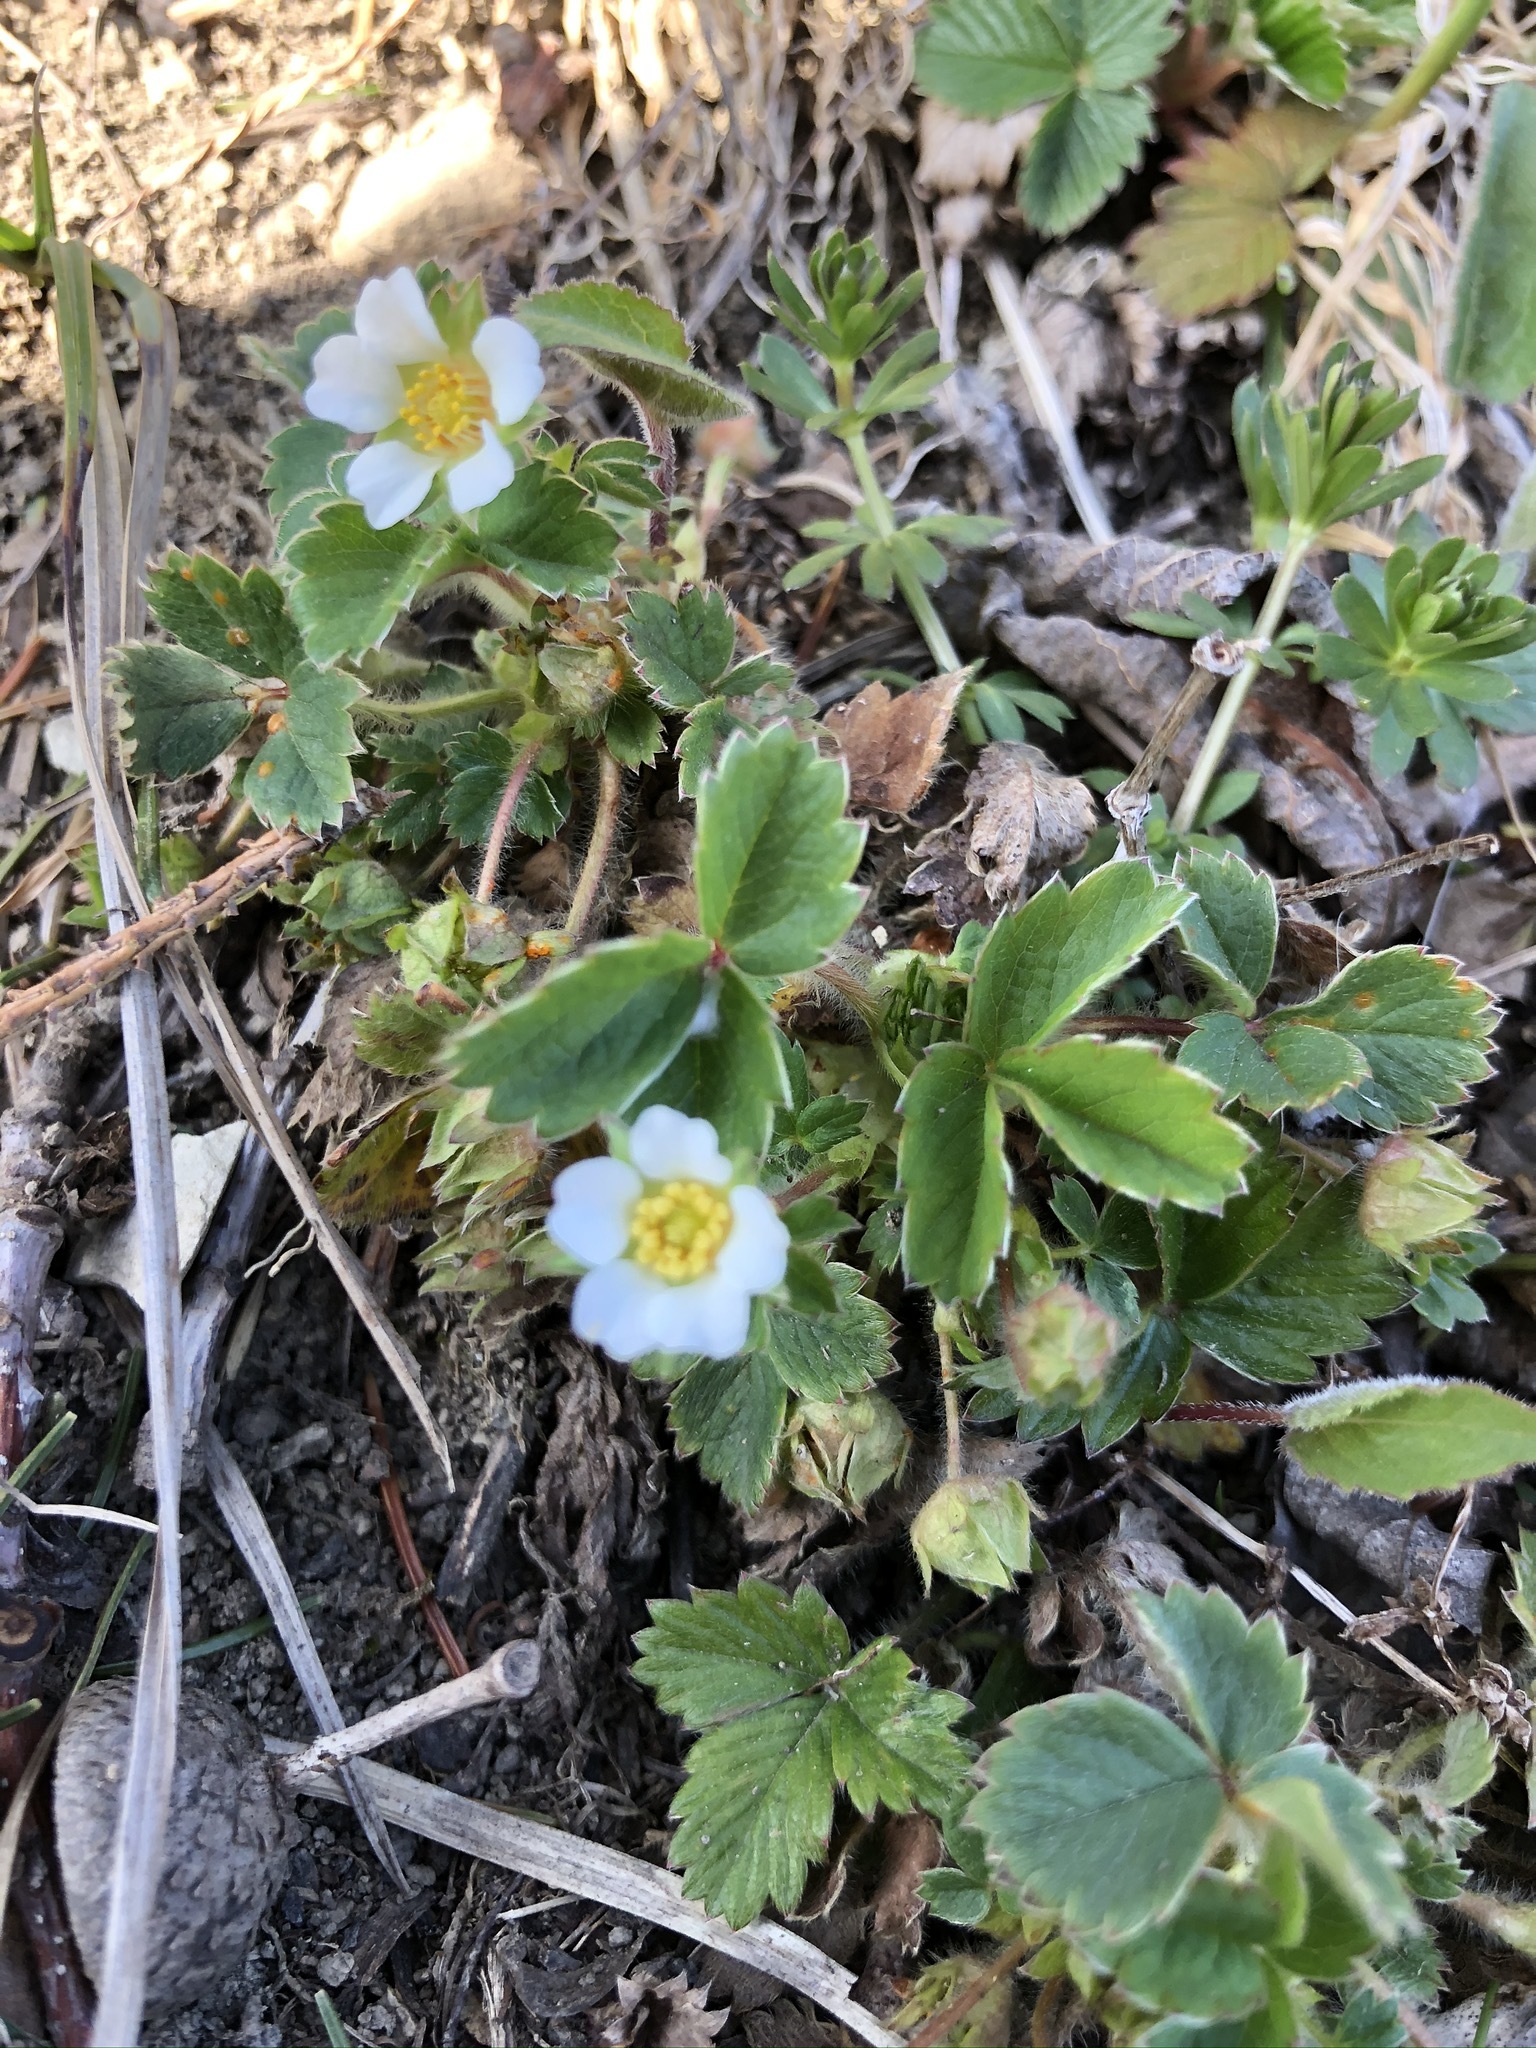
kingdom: Plantae
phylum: Tracheophyta
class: Magnoliopsida
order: Rosales
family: Rosaceae
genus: Potentilla
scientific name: Potentilla sterilis
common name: Barren strawberry
